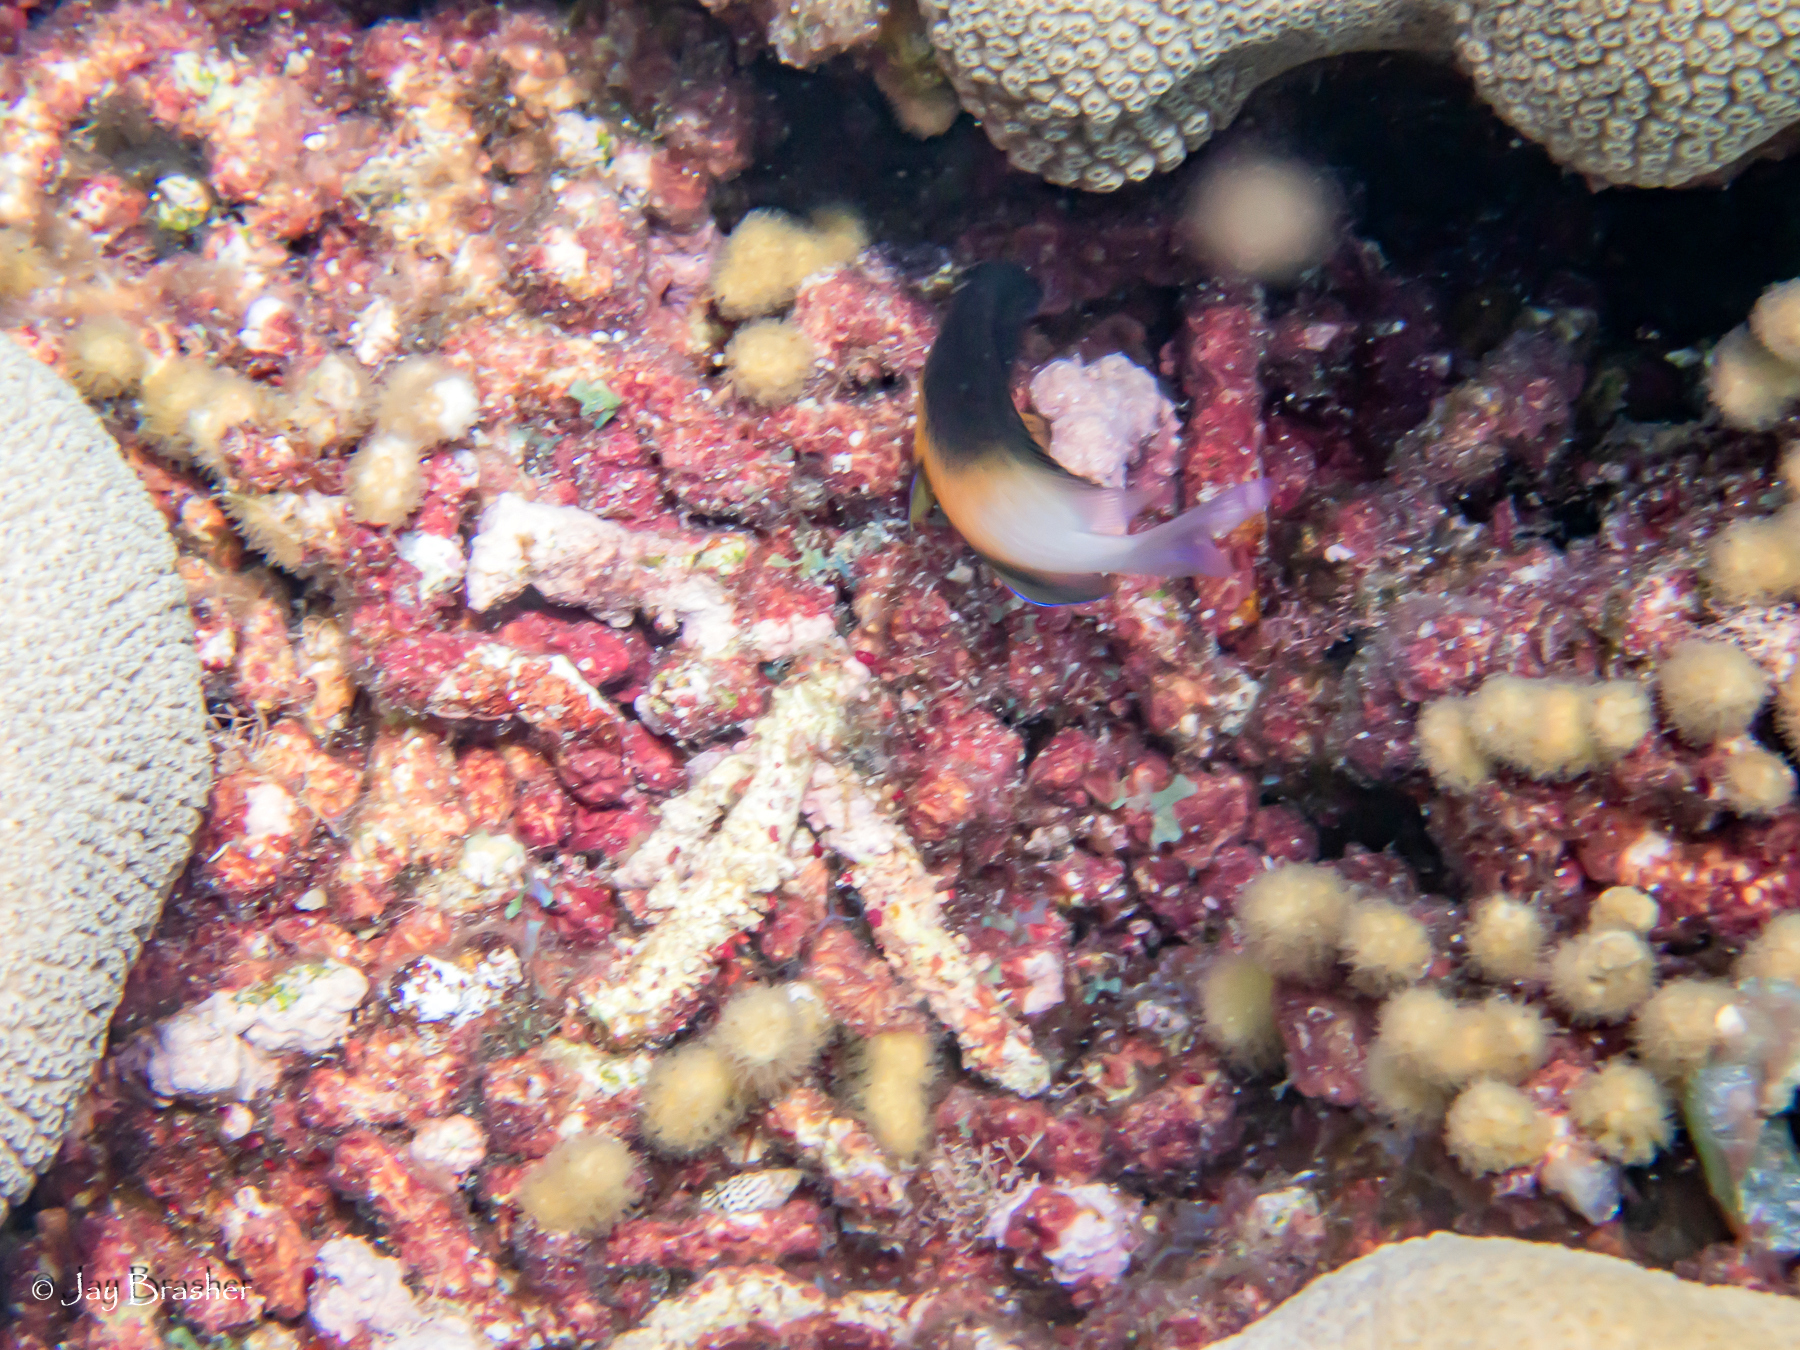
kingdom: Animalia
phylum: Chordata
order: Perciformes
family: Pomacentridae
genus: Stegastes
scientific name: Stegastes partitus
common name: Bicolor damselfish
